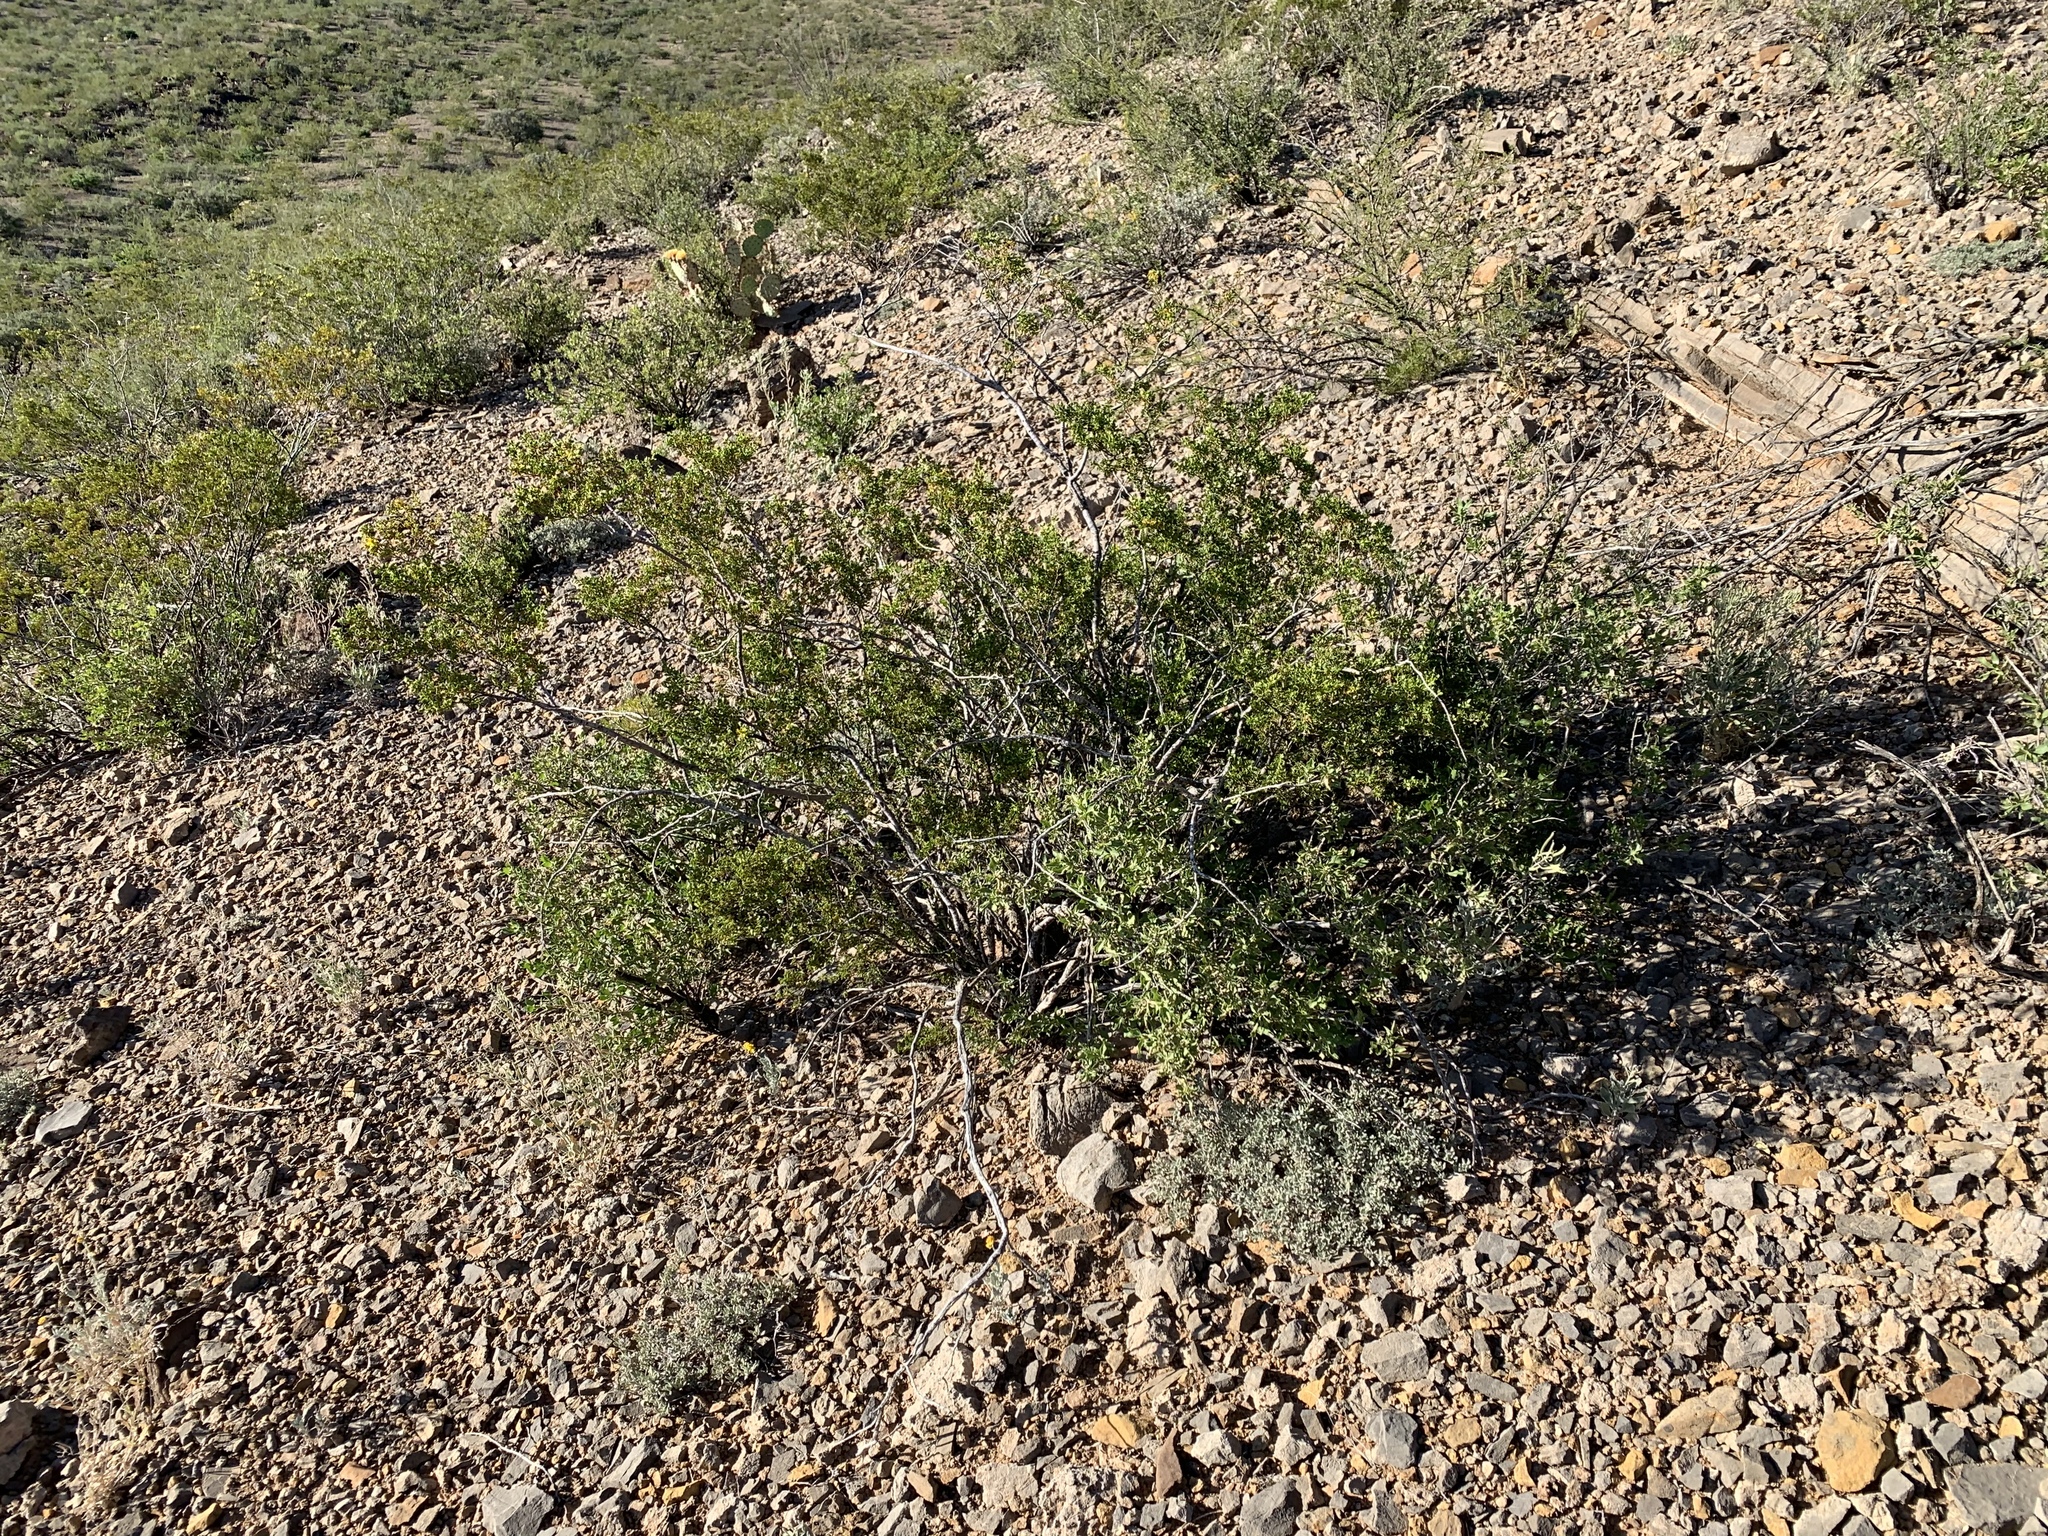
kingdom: Plantae
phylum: Tracheophyta
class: Magnoliopsida
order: Asterales
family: Asteraceae
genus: Flourensia
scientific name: Flourensia cernua
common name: Varnishbush
